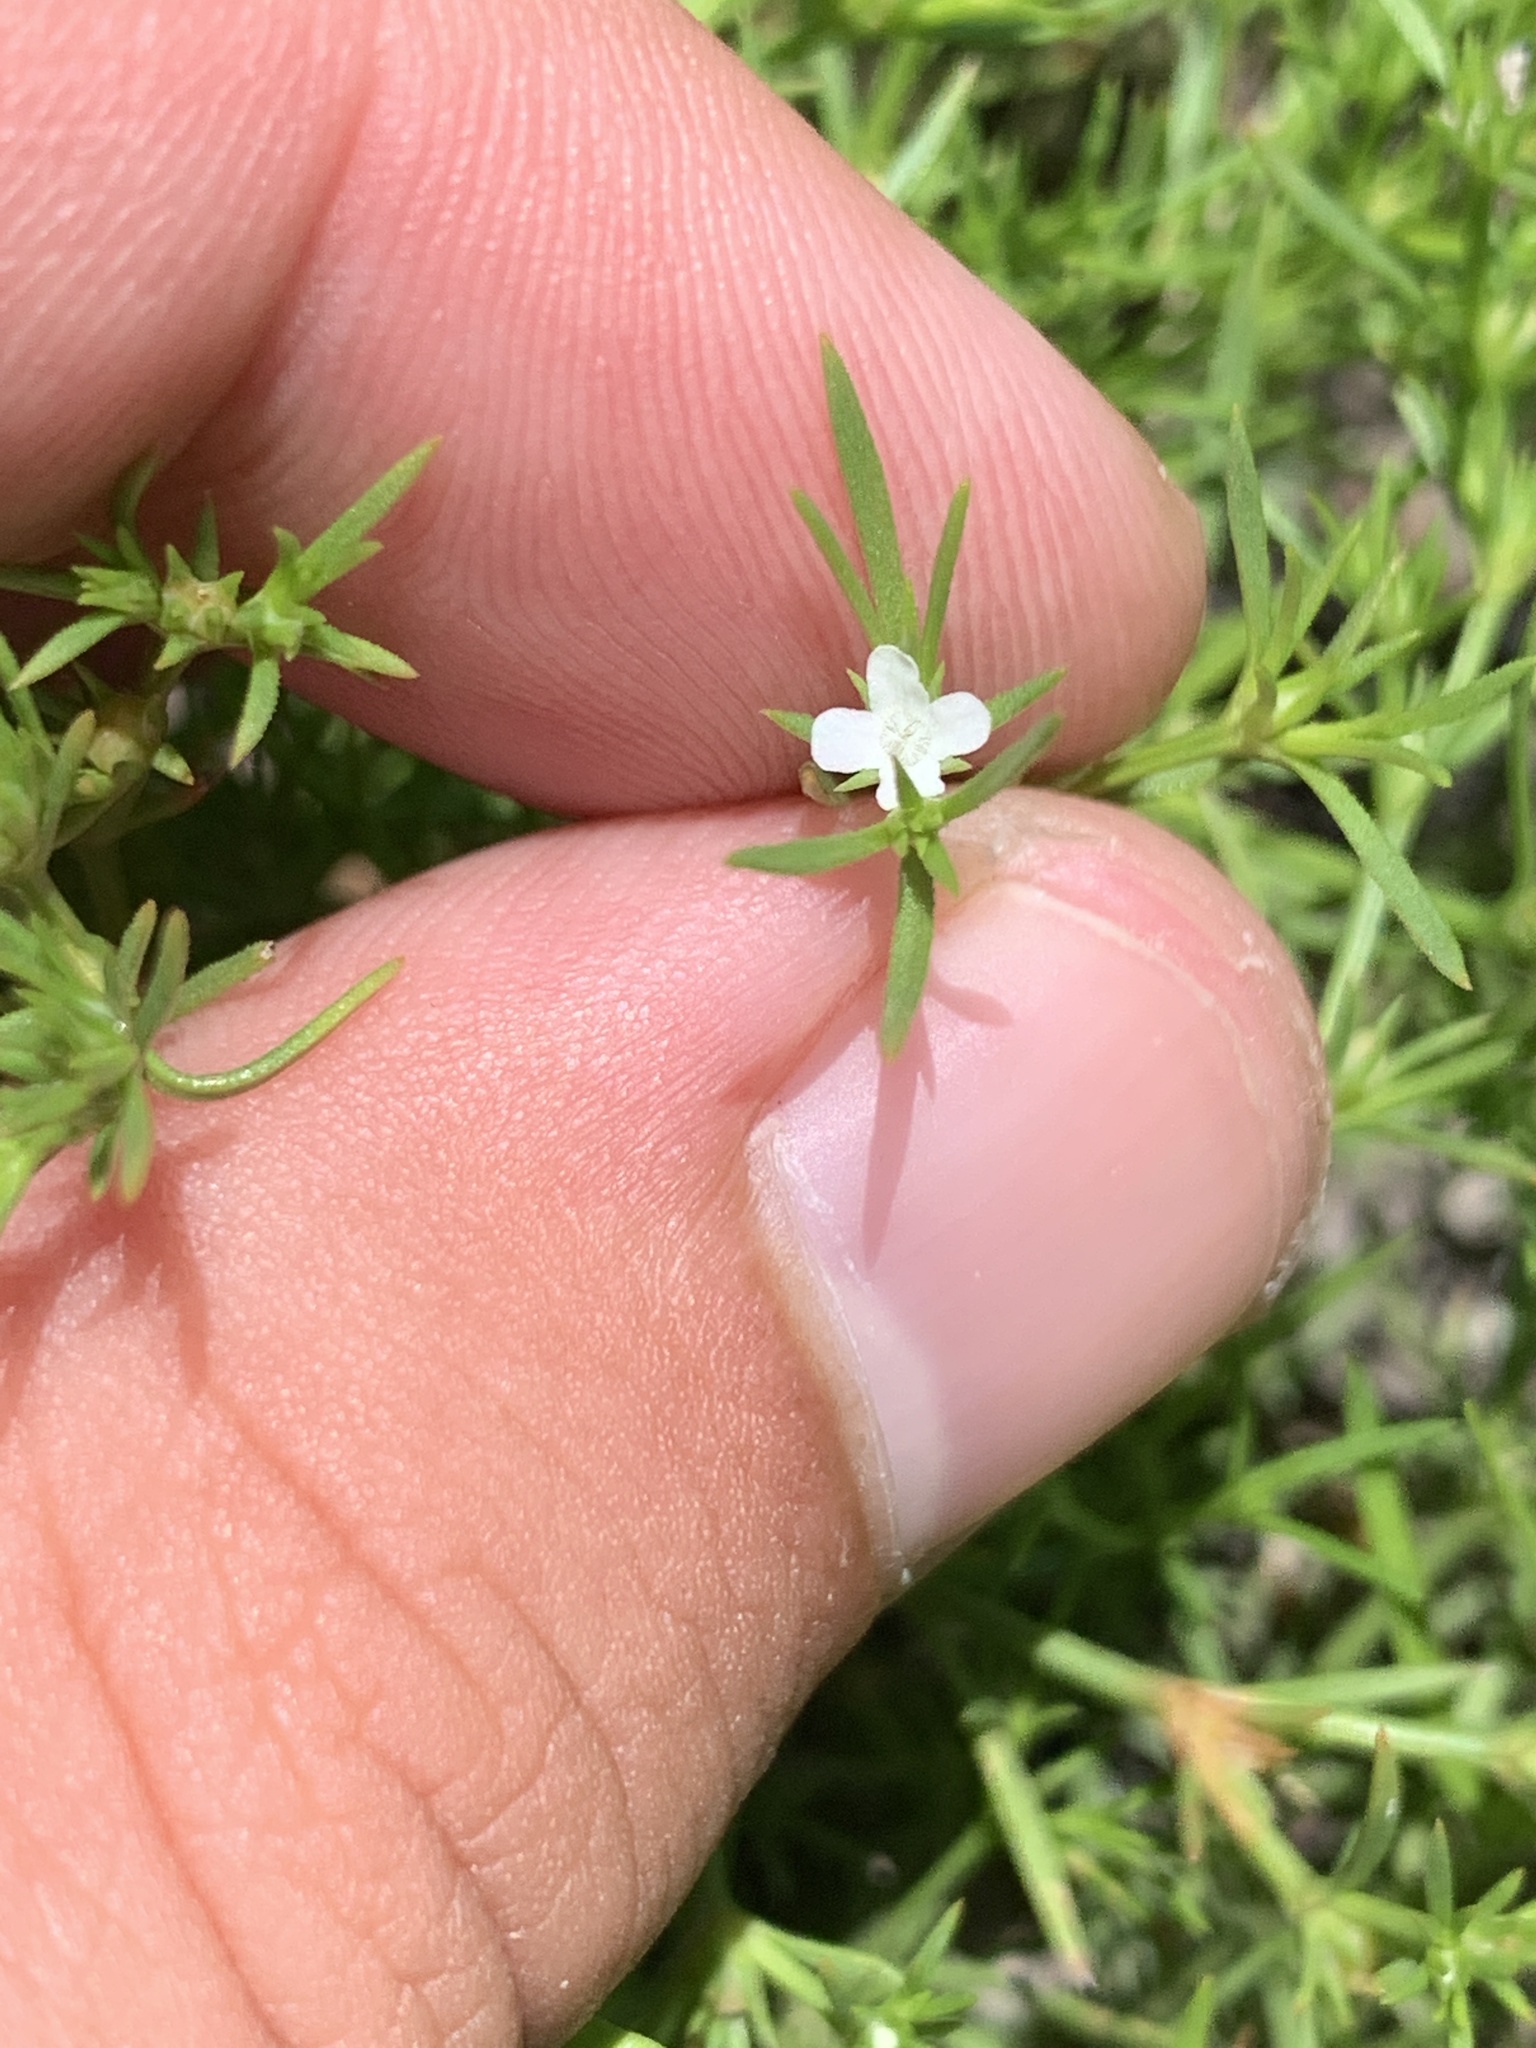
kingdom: Plantae
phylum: Tracheophyta
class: Magnoliopsida
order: Lamiales
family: Tetrachondraceae
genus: Polypremum
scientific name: Polypremum procumbens
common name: Juniper-leaf
